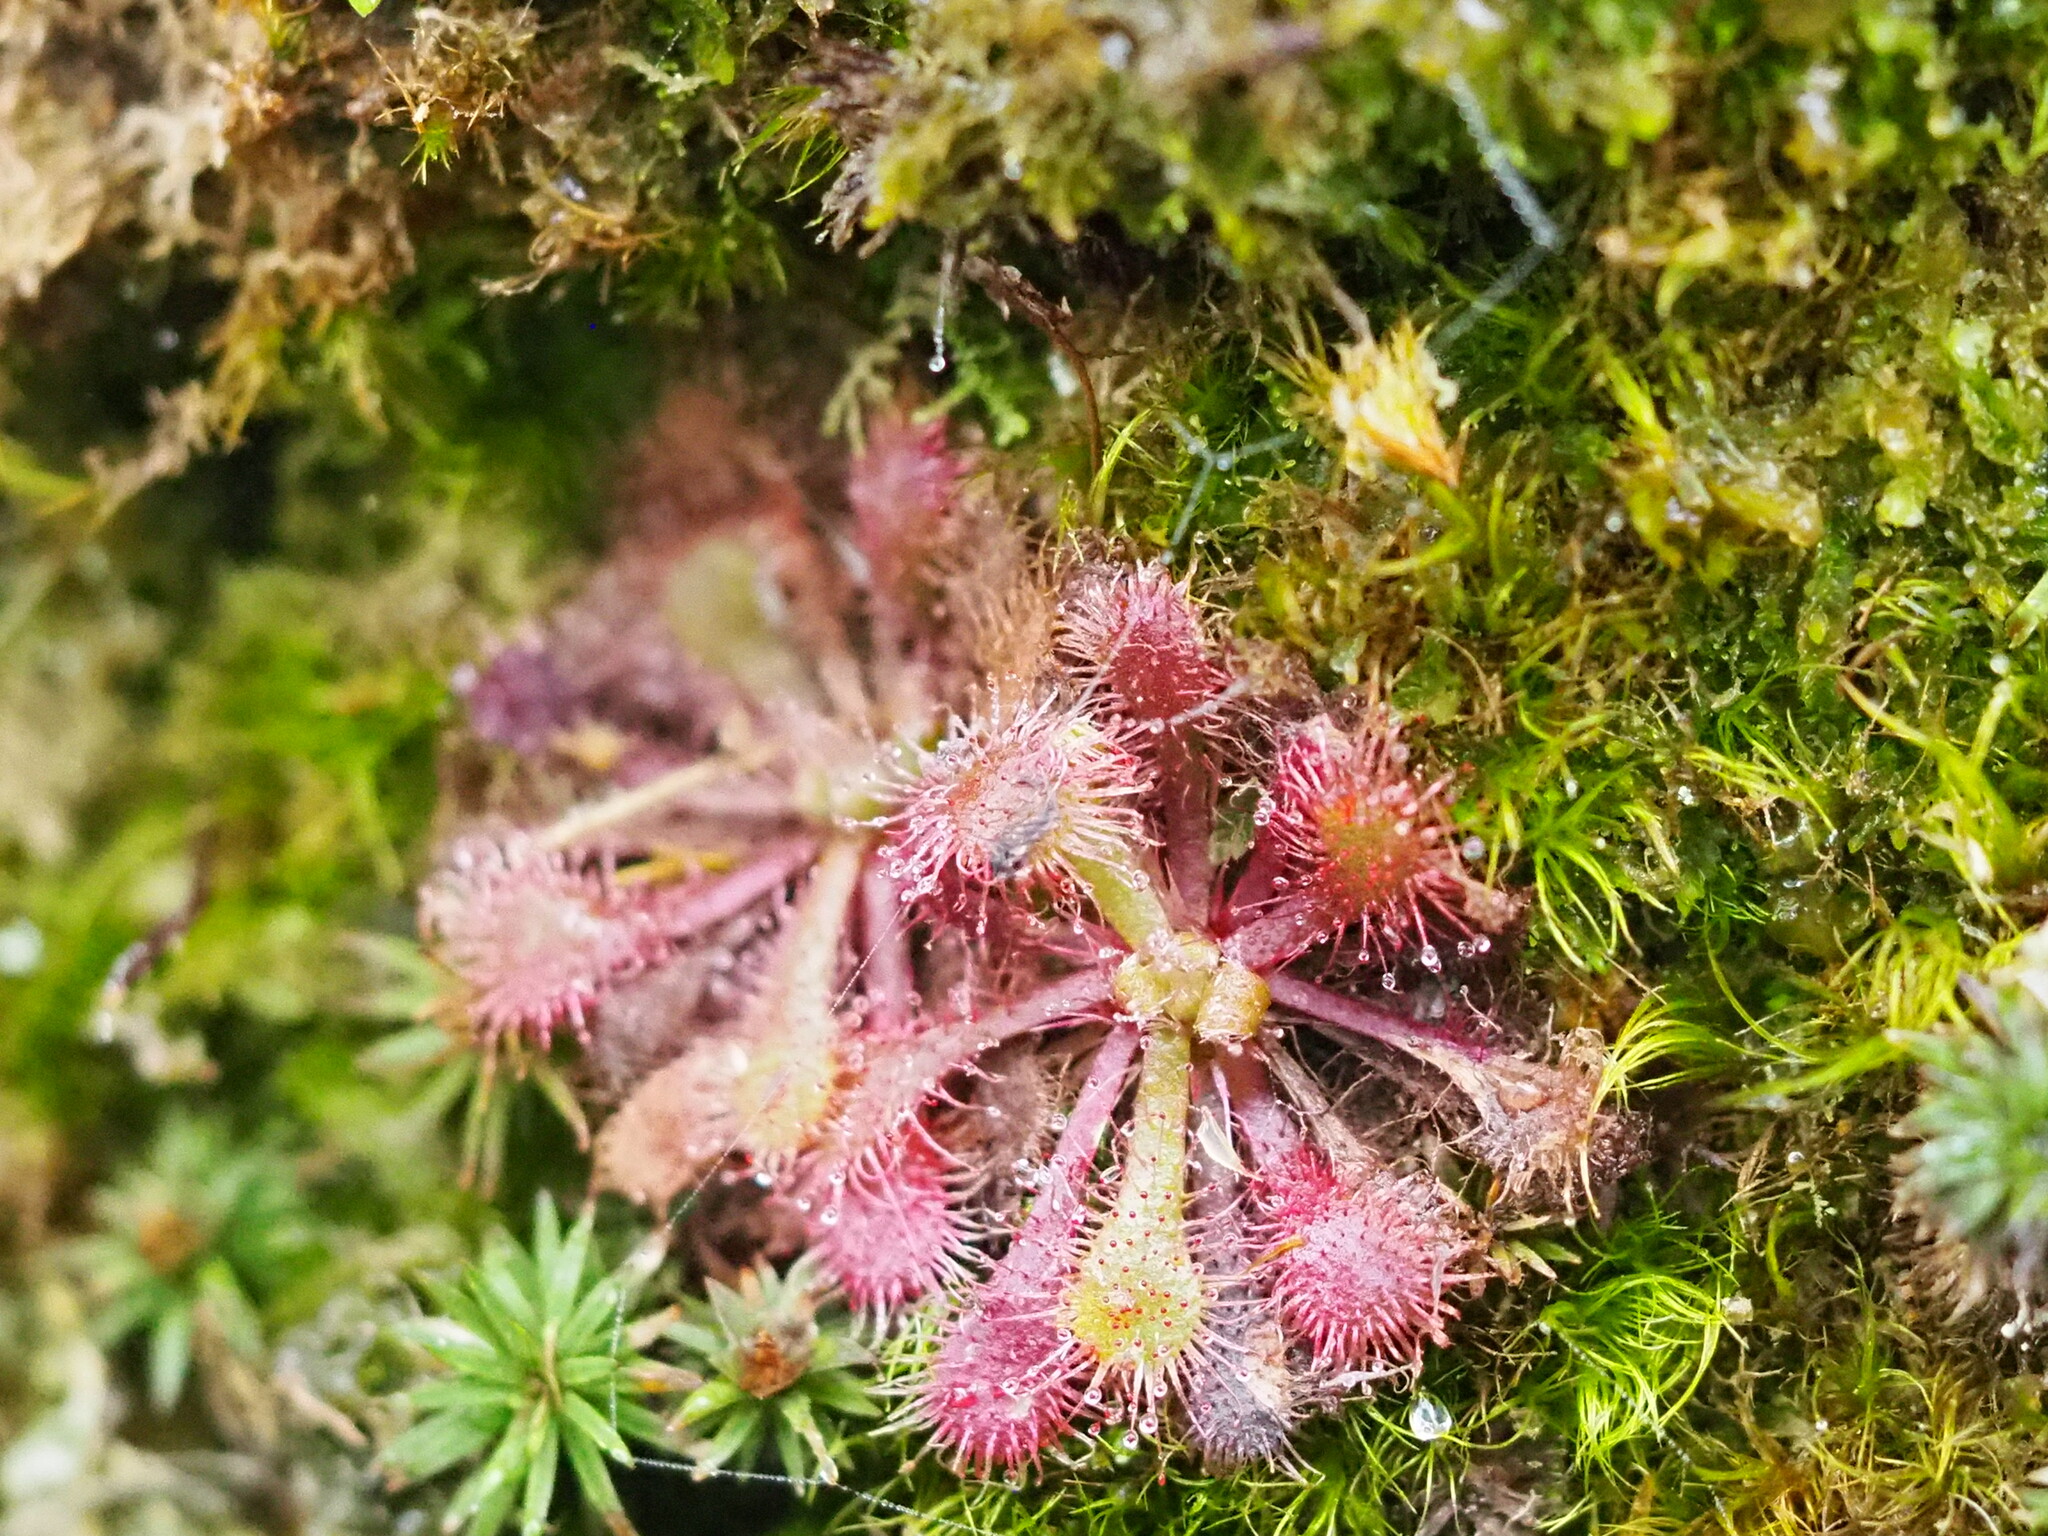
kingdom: Plantae
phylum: Tracheophyta
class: Magnoliopsida
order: Caryophyllales
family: Droseraceae
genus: Drosera
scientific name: Drosera spatulata
